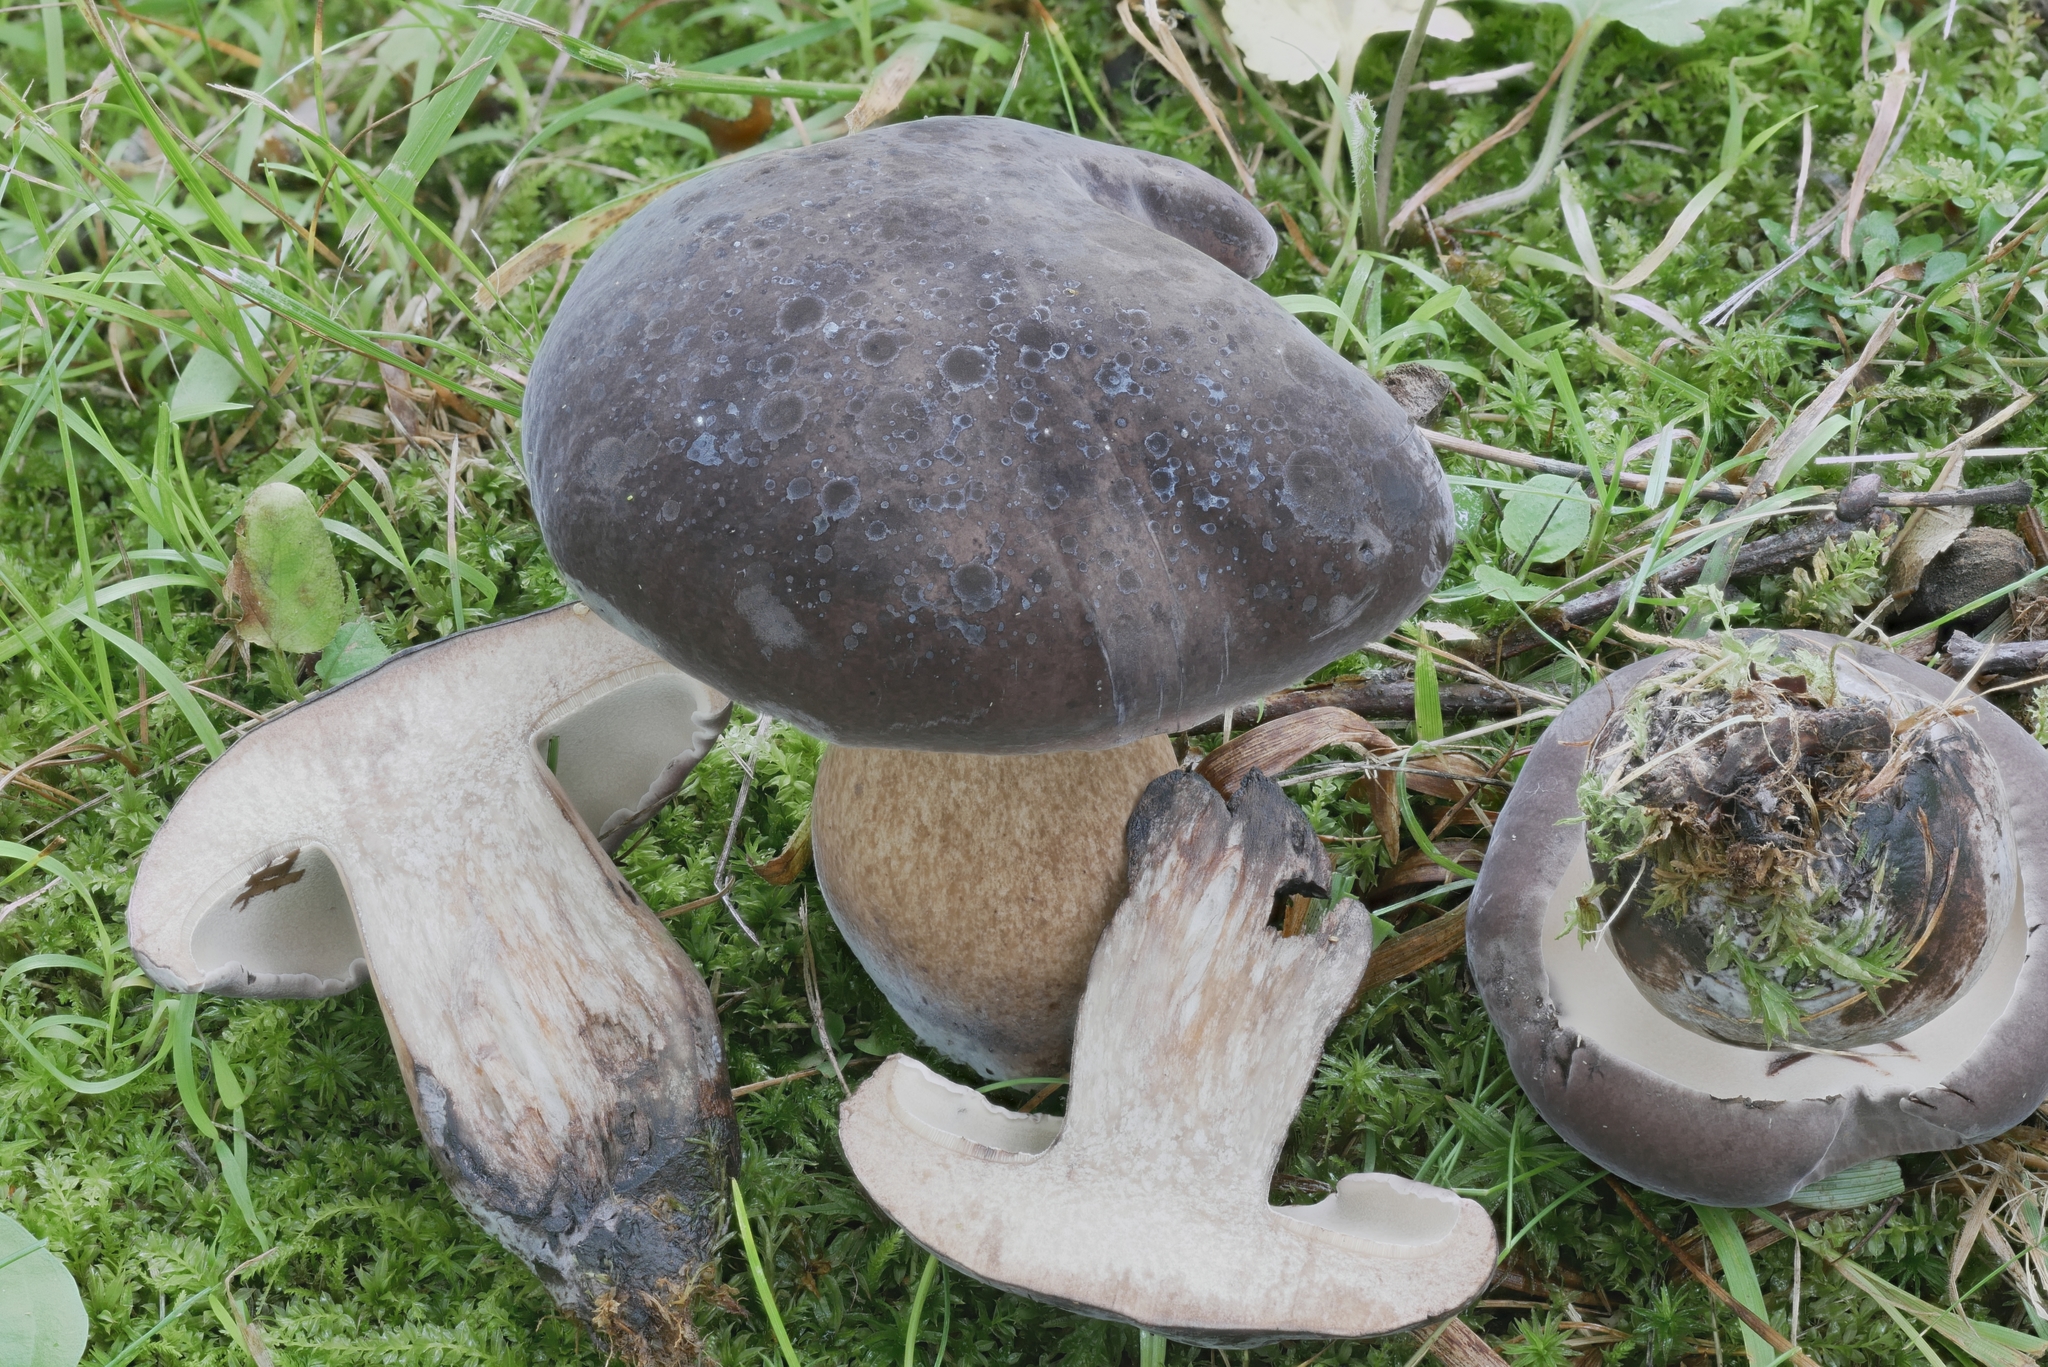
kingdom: Fungi
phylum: Basidiomycota
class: Agaricomycetes
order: Boletales
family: Boletaceae
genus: Tylopilus
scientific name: Tylopilus alboater
